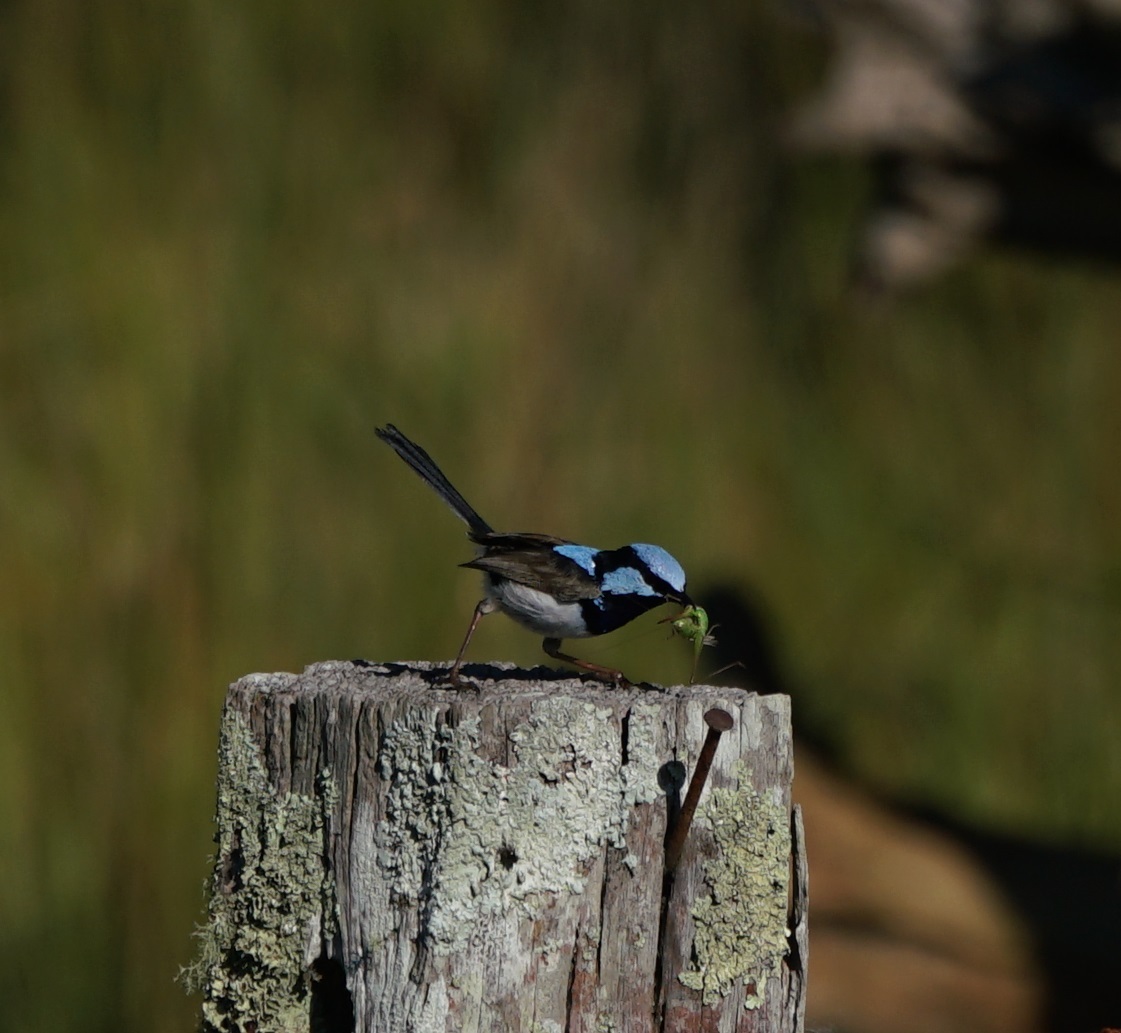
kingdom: Animalia
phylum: Chordata
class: Aves
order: Passeriformes
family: Maluridae
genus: Malurus
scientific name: Malurus cyaneus
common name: Superb fairywren
